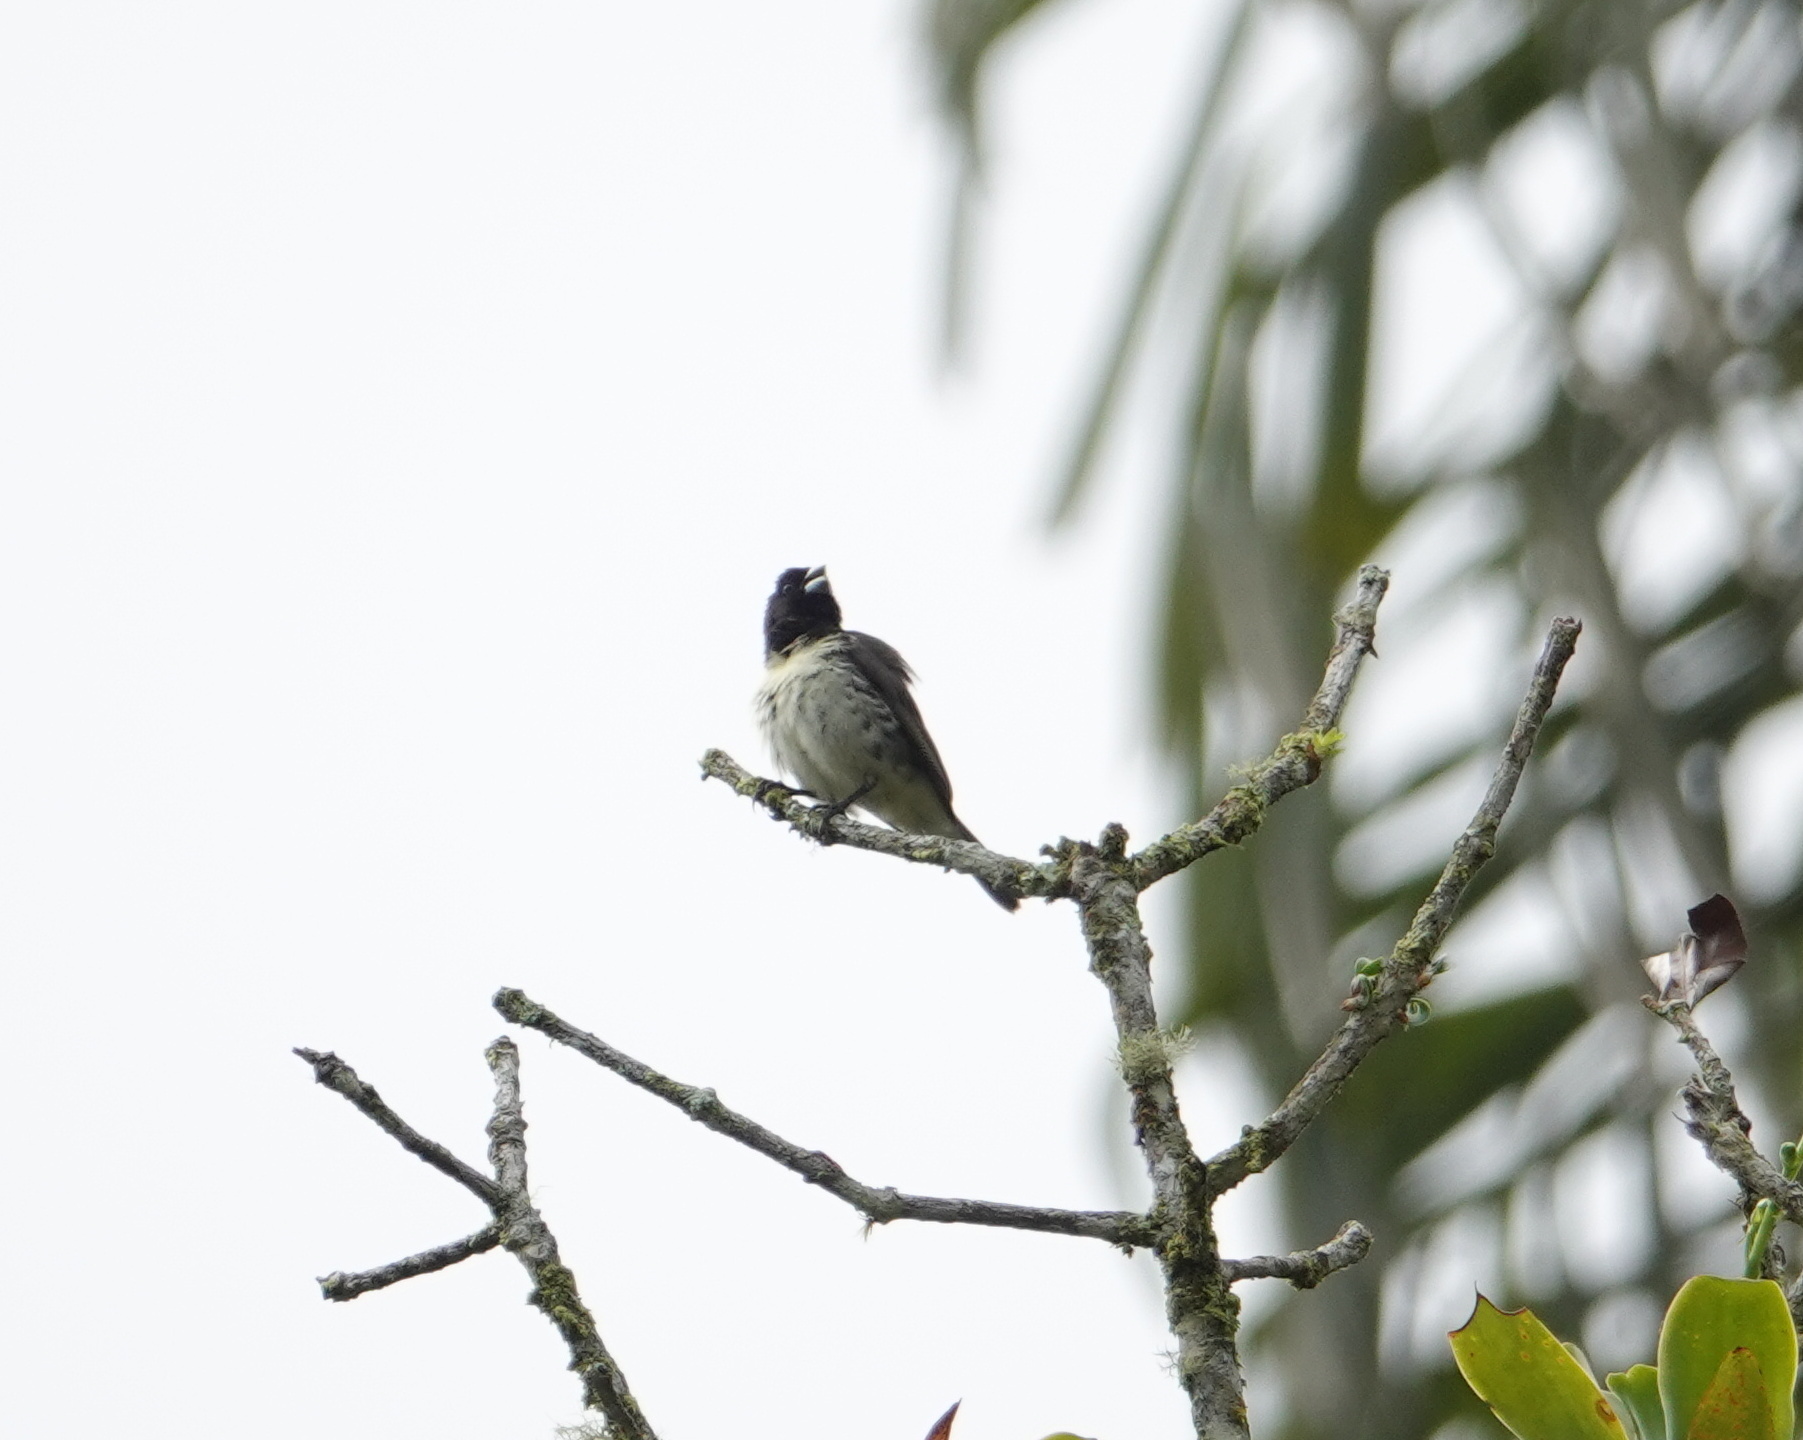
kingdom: Animalia
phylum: Chordata
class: Aves
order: Passeriformes
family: Thraupidae
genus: Sporophila
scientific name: Sporophila nigricollis
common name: Yellow-bellied seedeater
